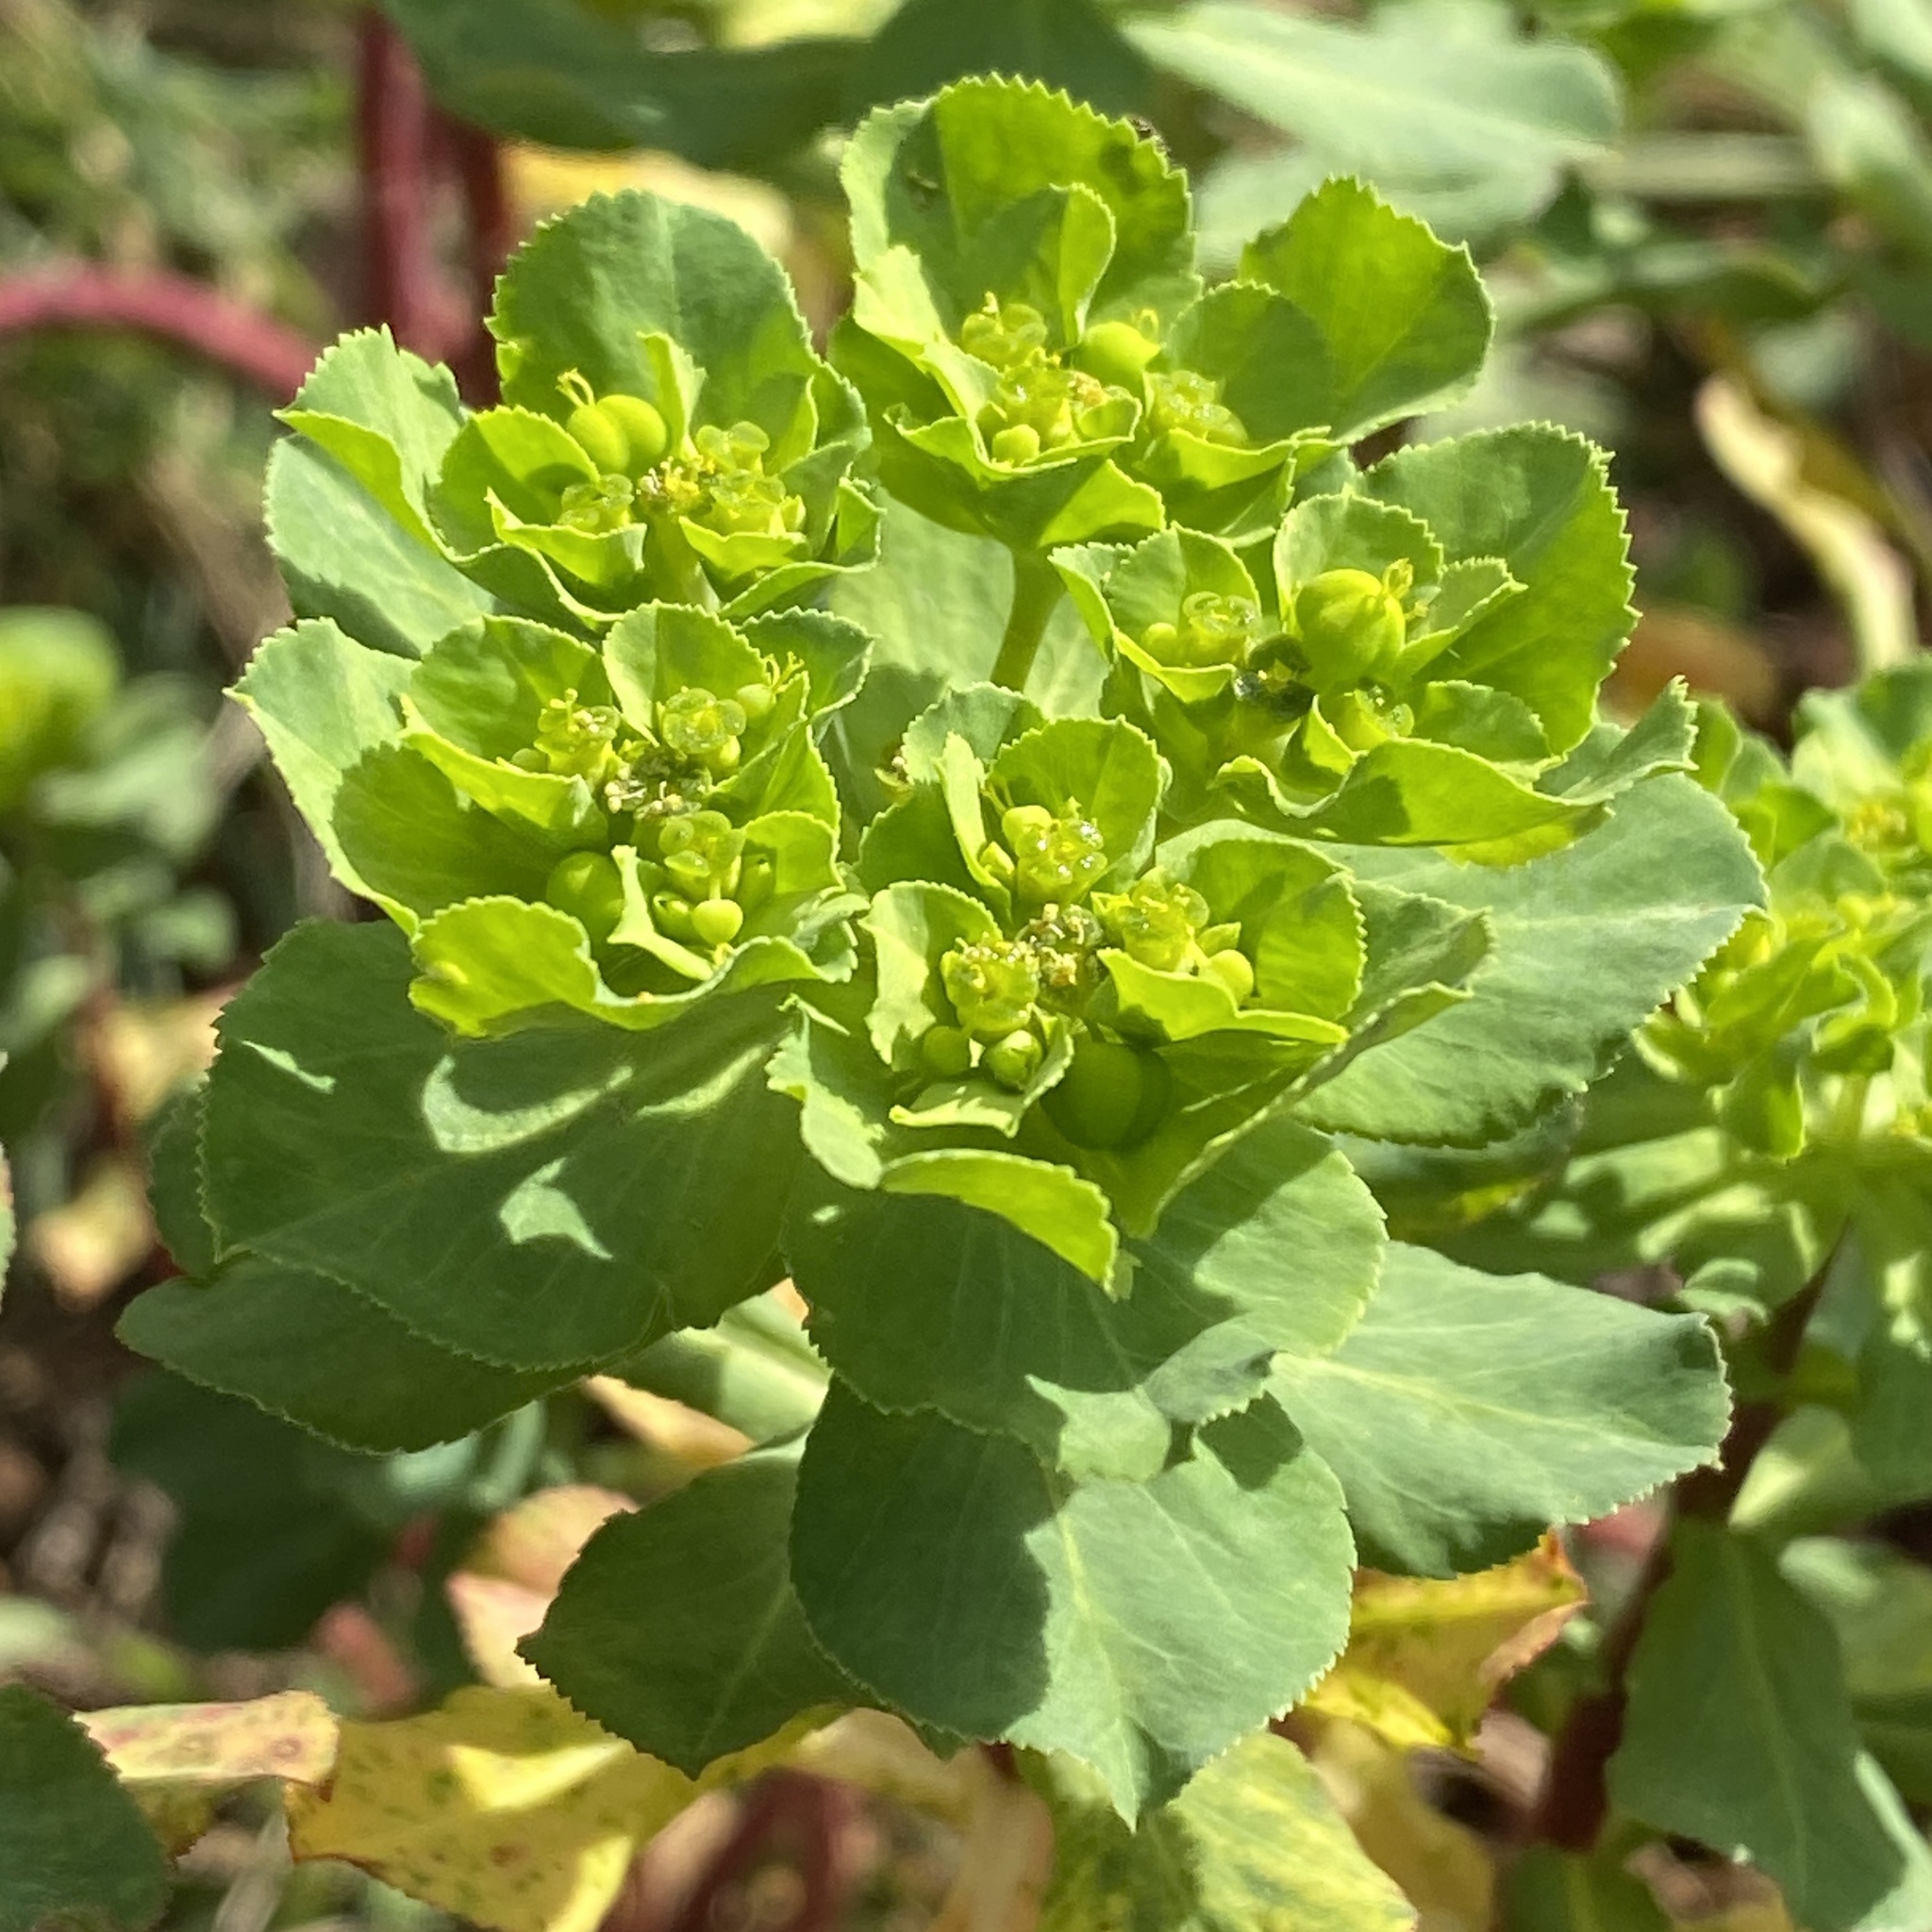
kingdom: Plantae
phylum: Tracheophyta
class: Magnoliopsida
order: Malpighiales
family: Euphorbiaceae
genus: Euphorbia
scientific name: Euphorbia helioscopia
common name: Sun spurge
